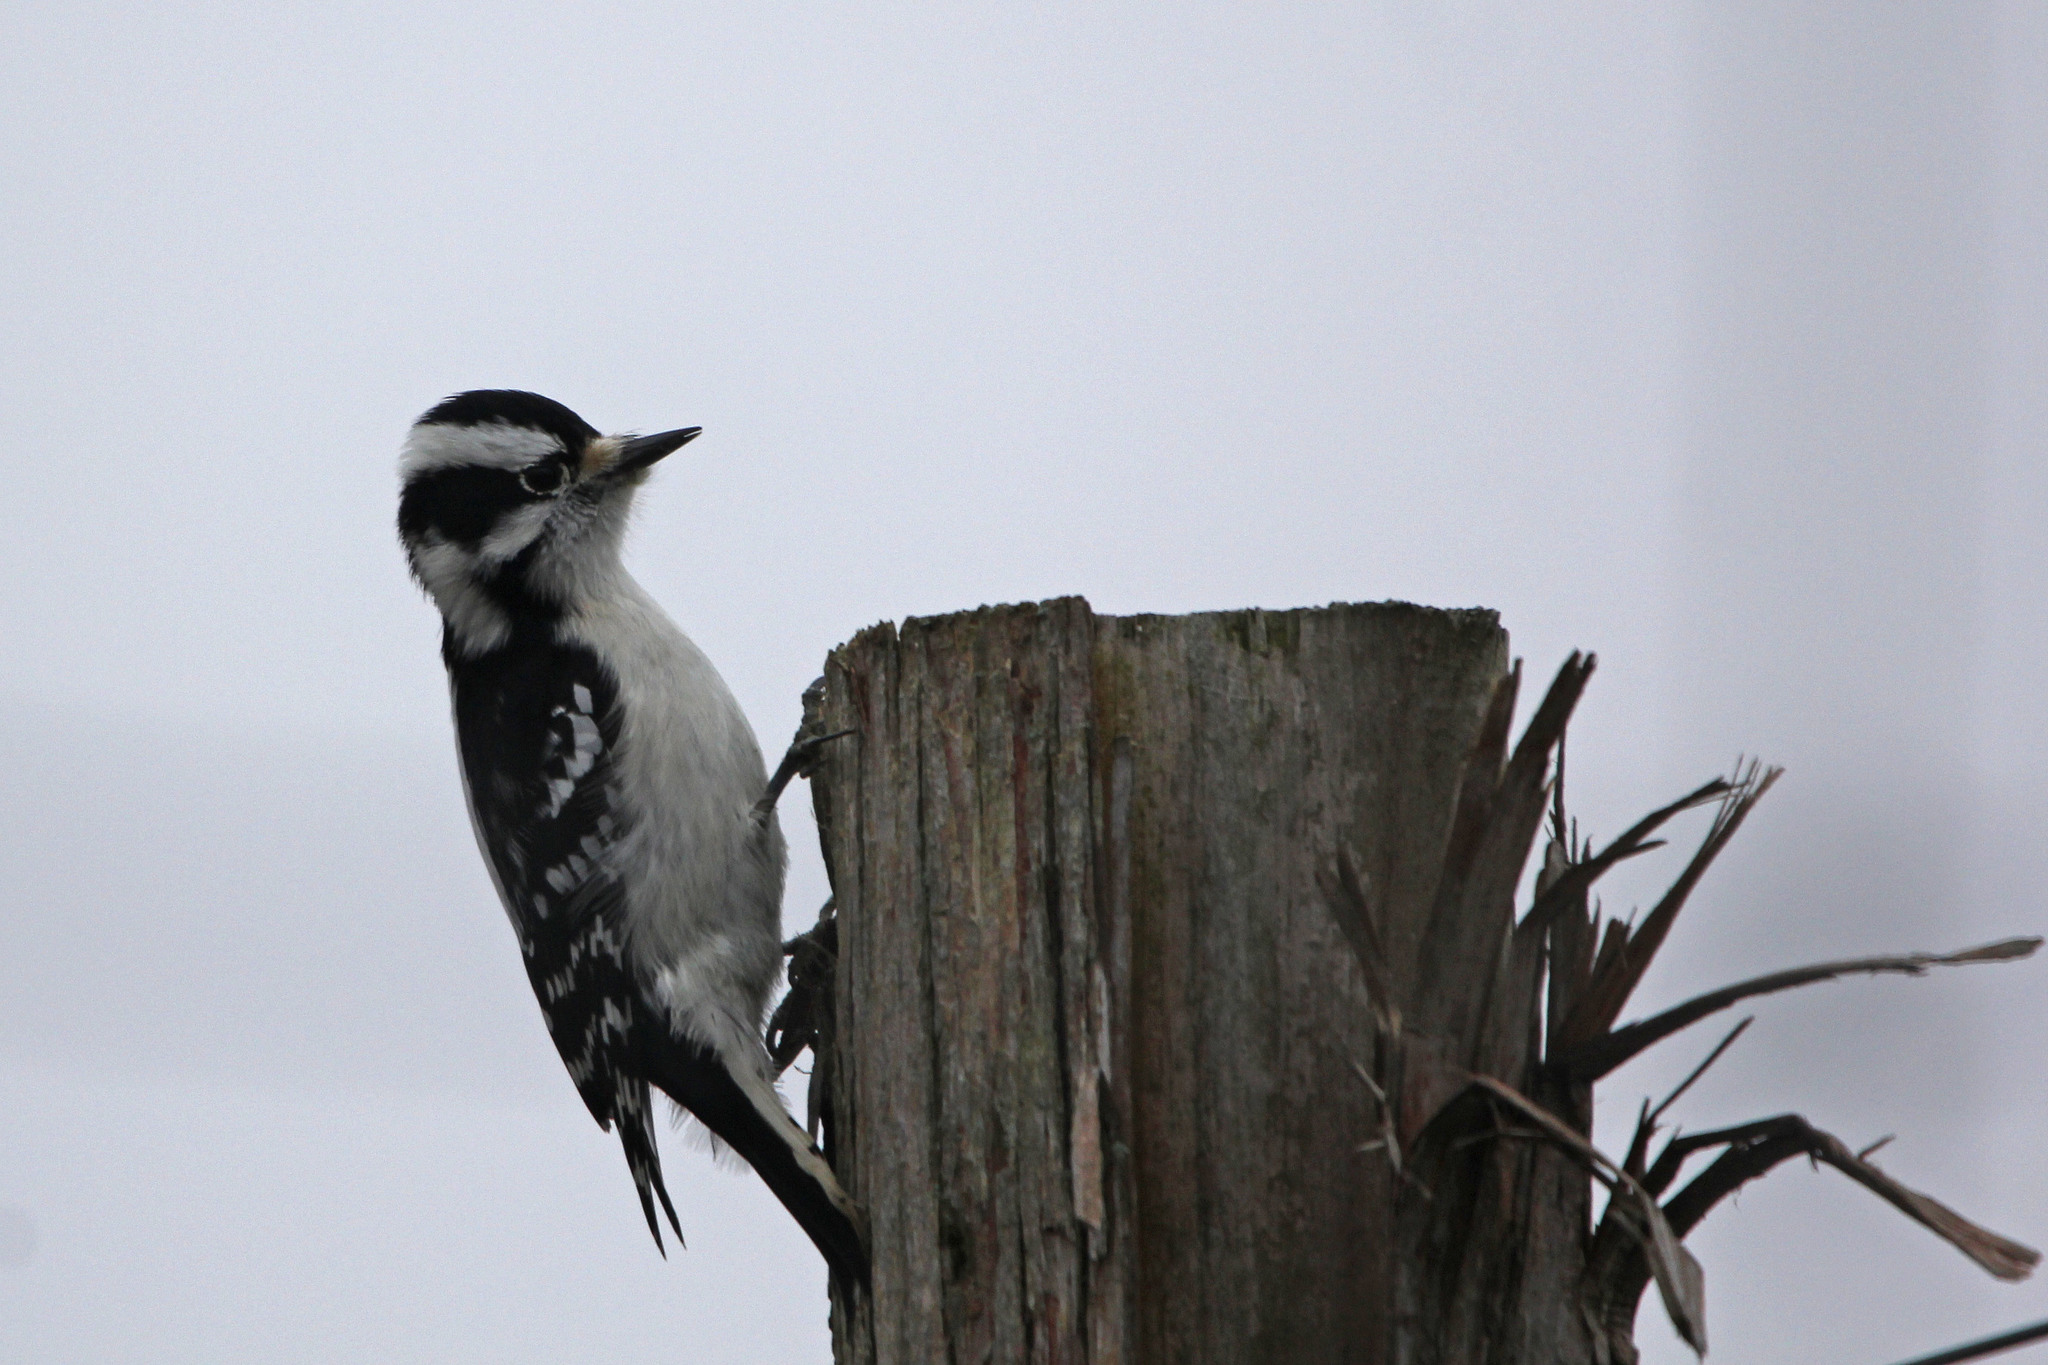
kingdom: Animalia
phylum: Chordata
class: Aves
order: Piciformes
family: Picidae
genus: Dryobates
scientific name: Dryobates pubescens
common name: Downy woodpecker
